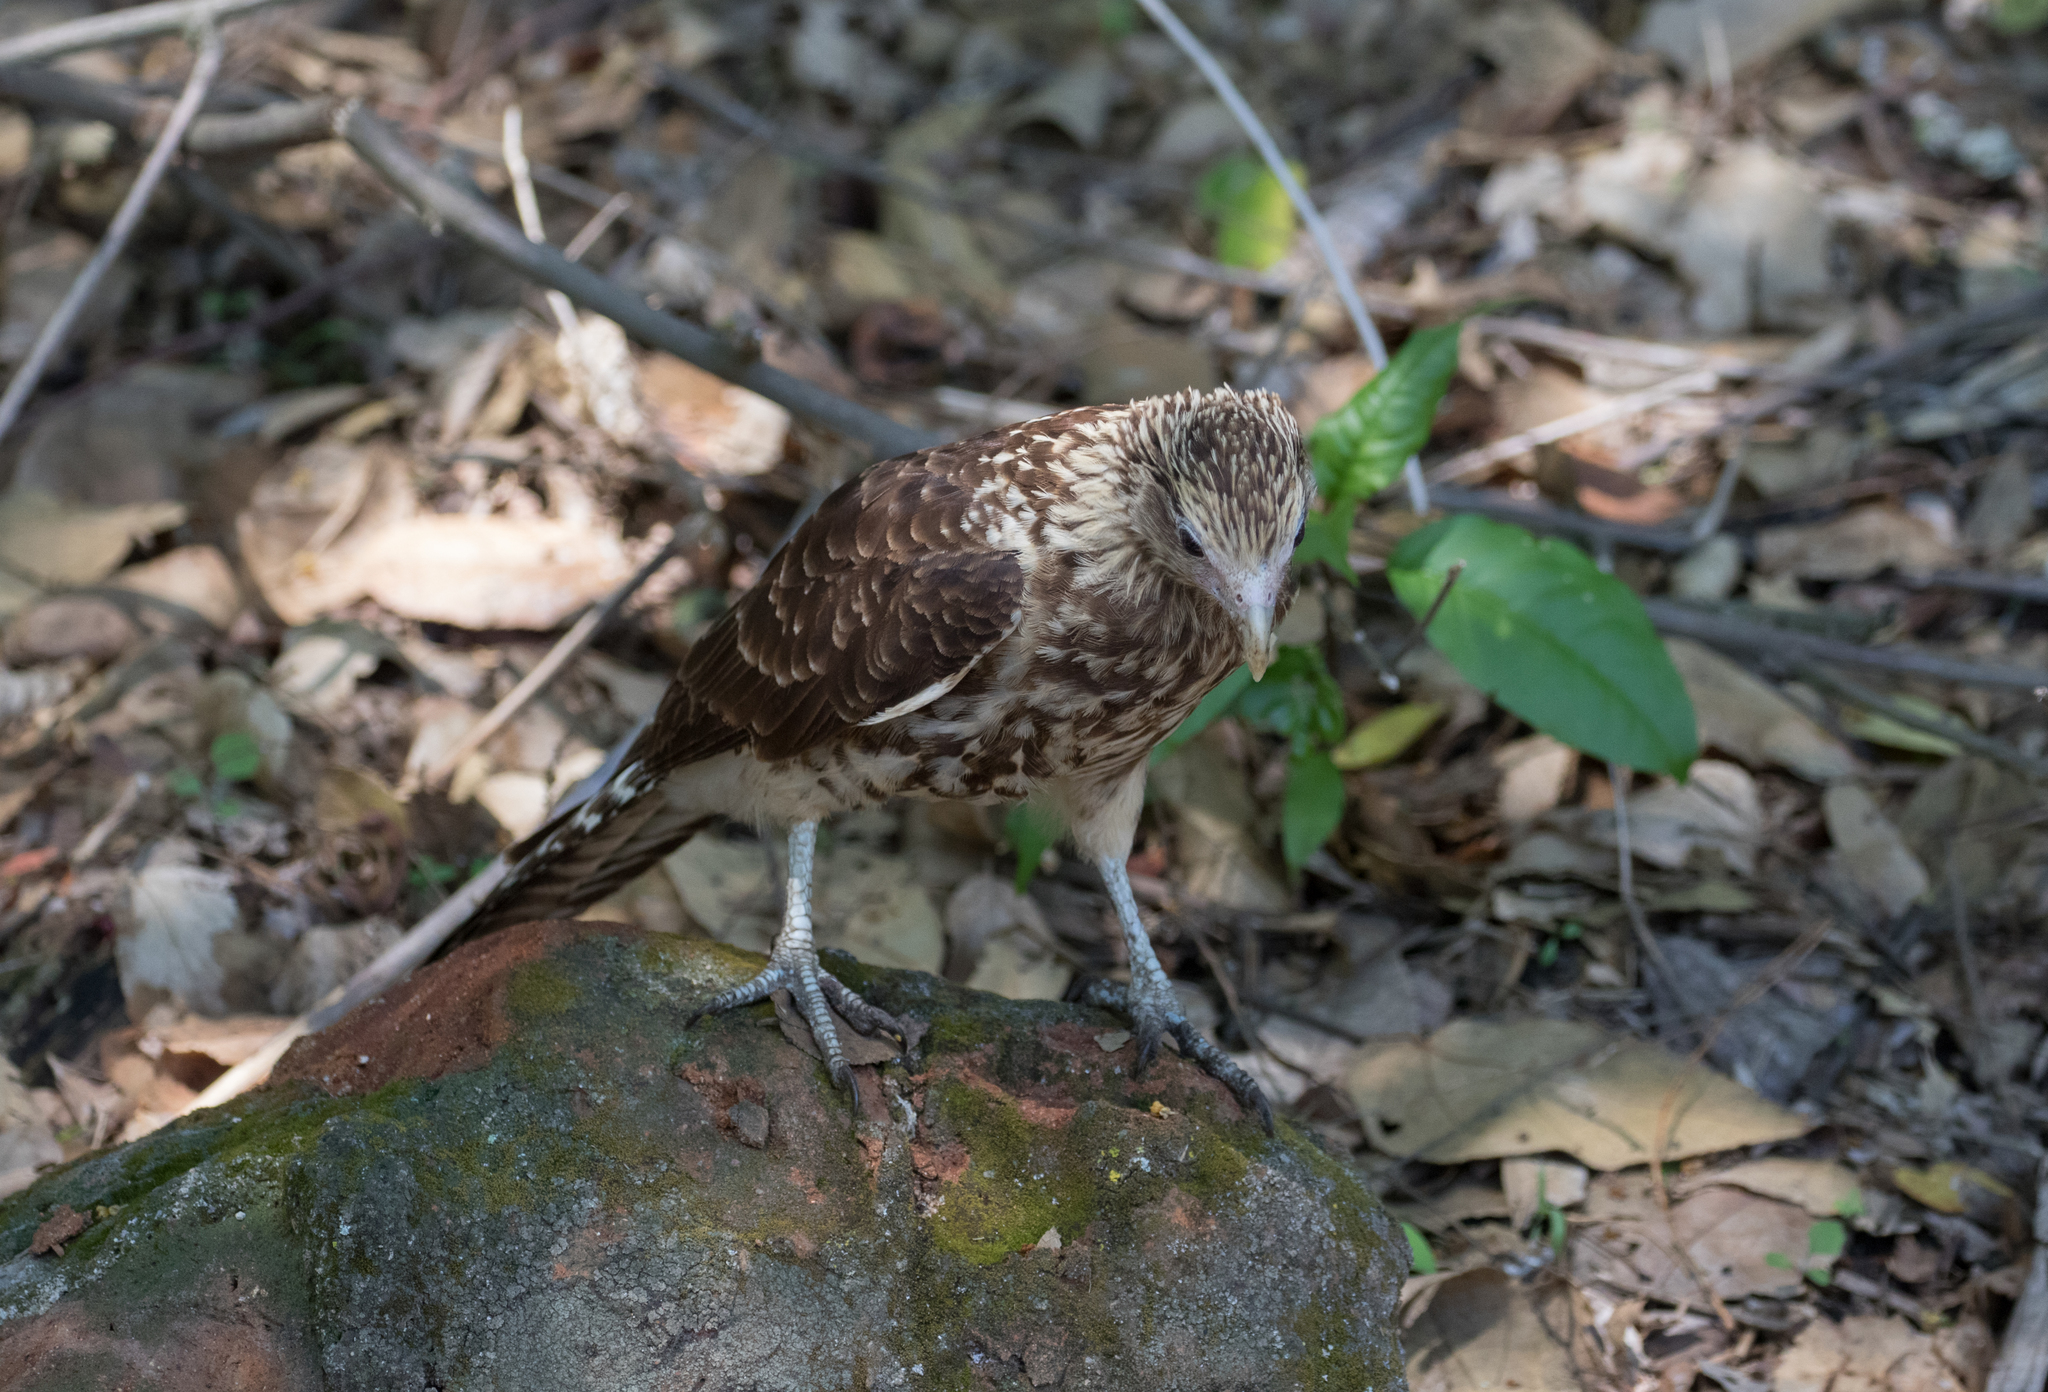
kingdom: Animalia
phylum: Chordata
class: Aves
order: Falconiformes
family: Falconidae
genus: Daptrius
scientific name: Daptrius
